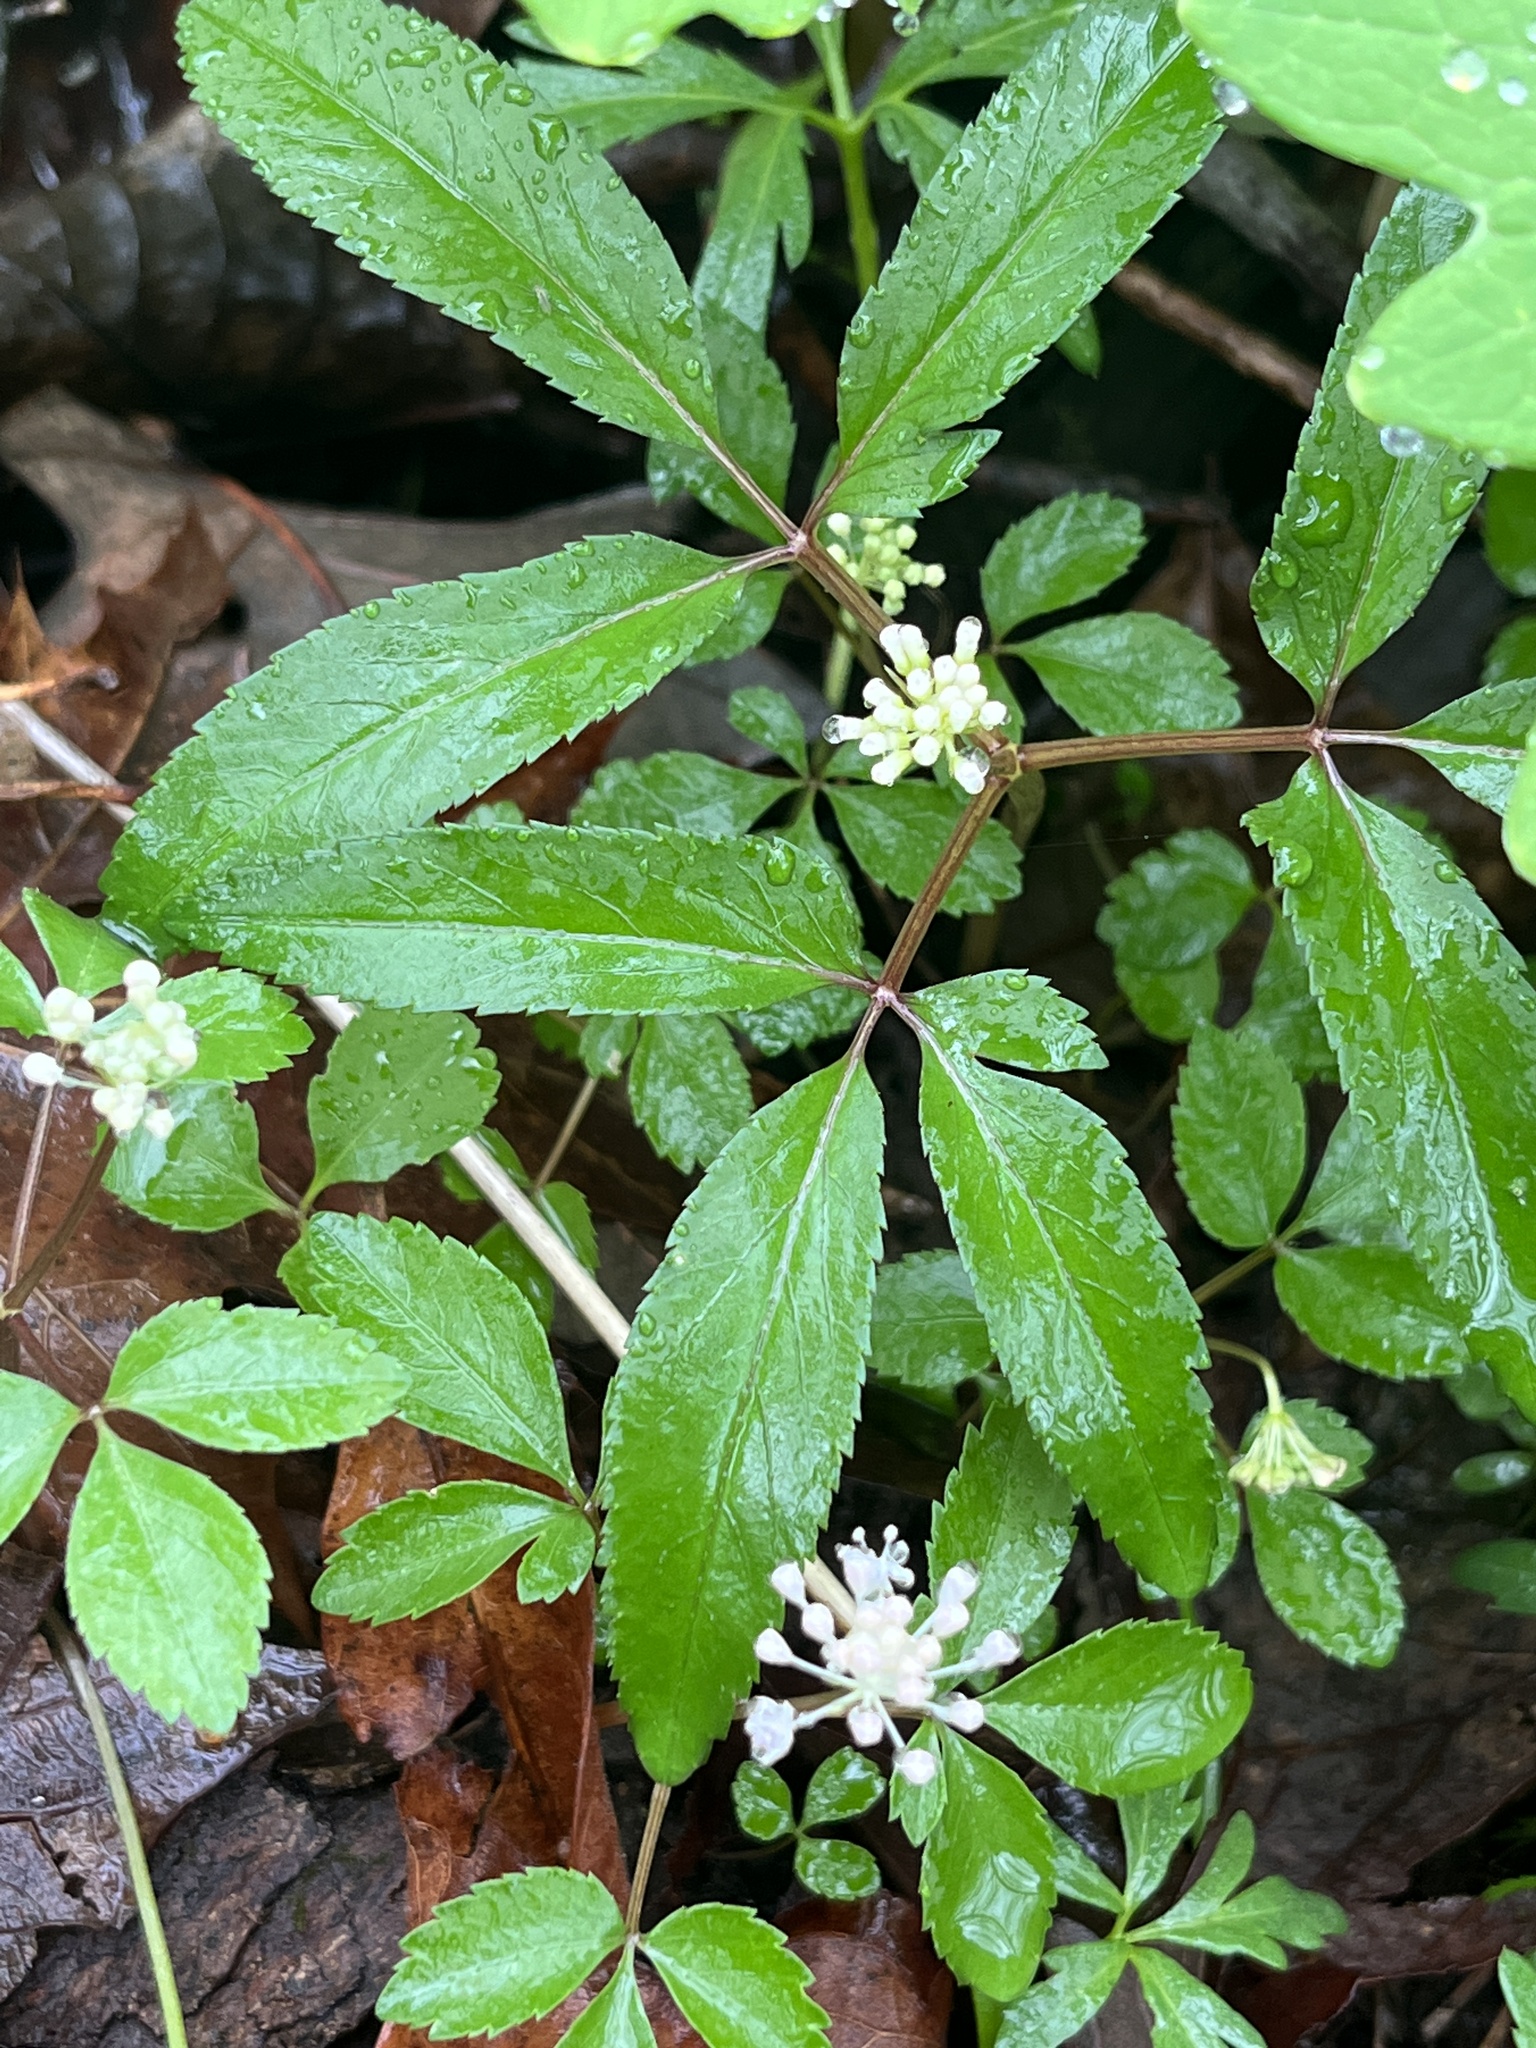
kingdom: Plantae
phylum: Tracheophyta
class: Magnoliopsida
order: Apiales
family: Araliaceae
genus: Panax
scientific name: Panax trifolius
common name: Dwarf ginseng
